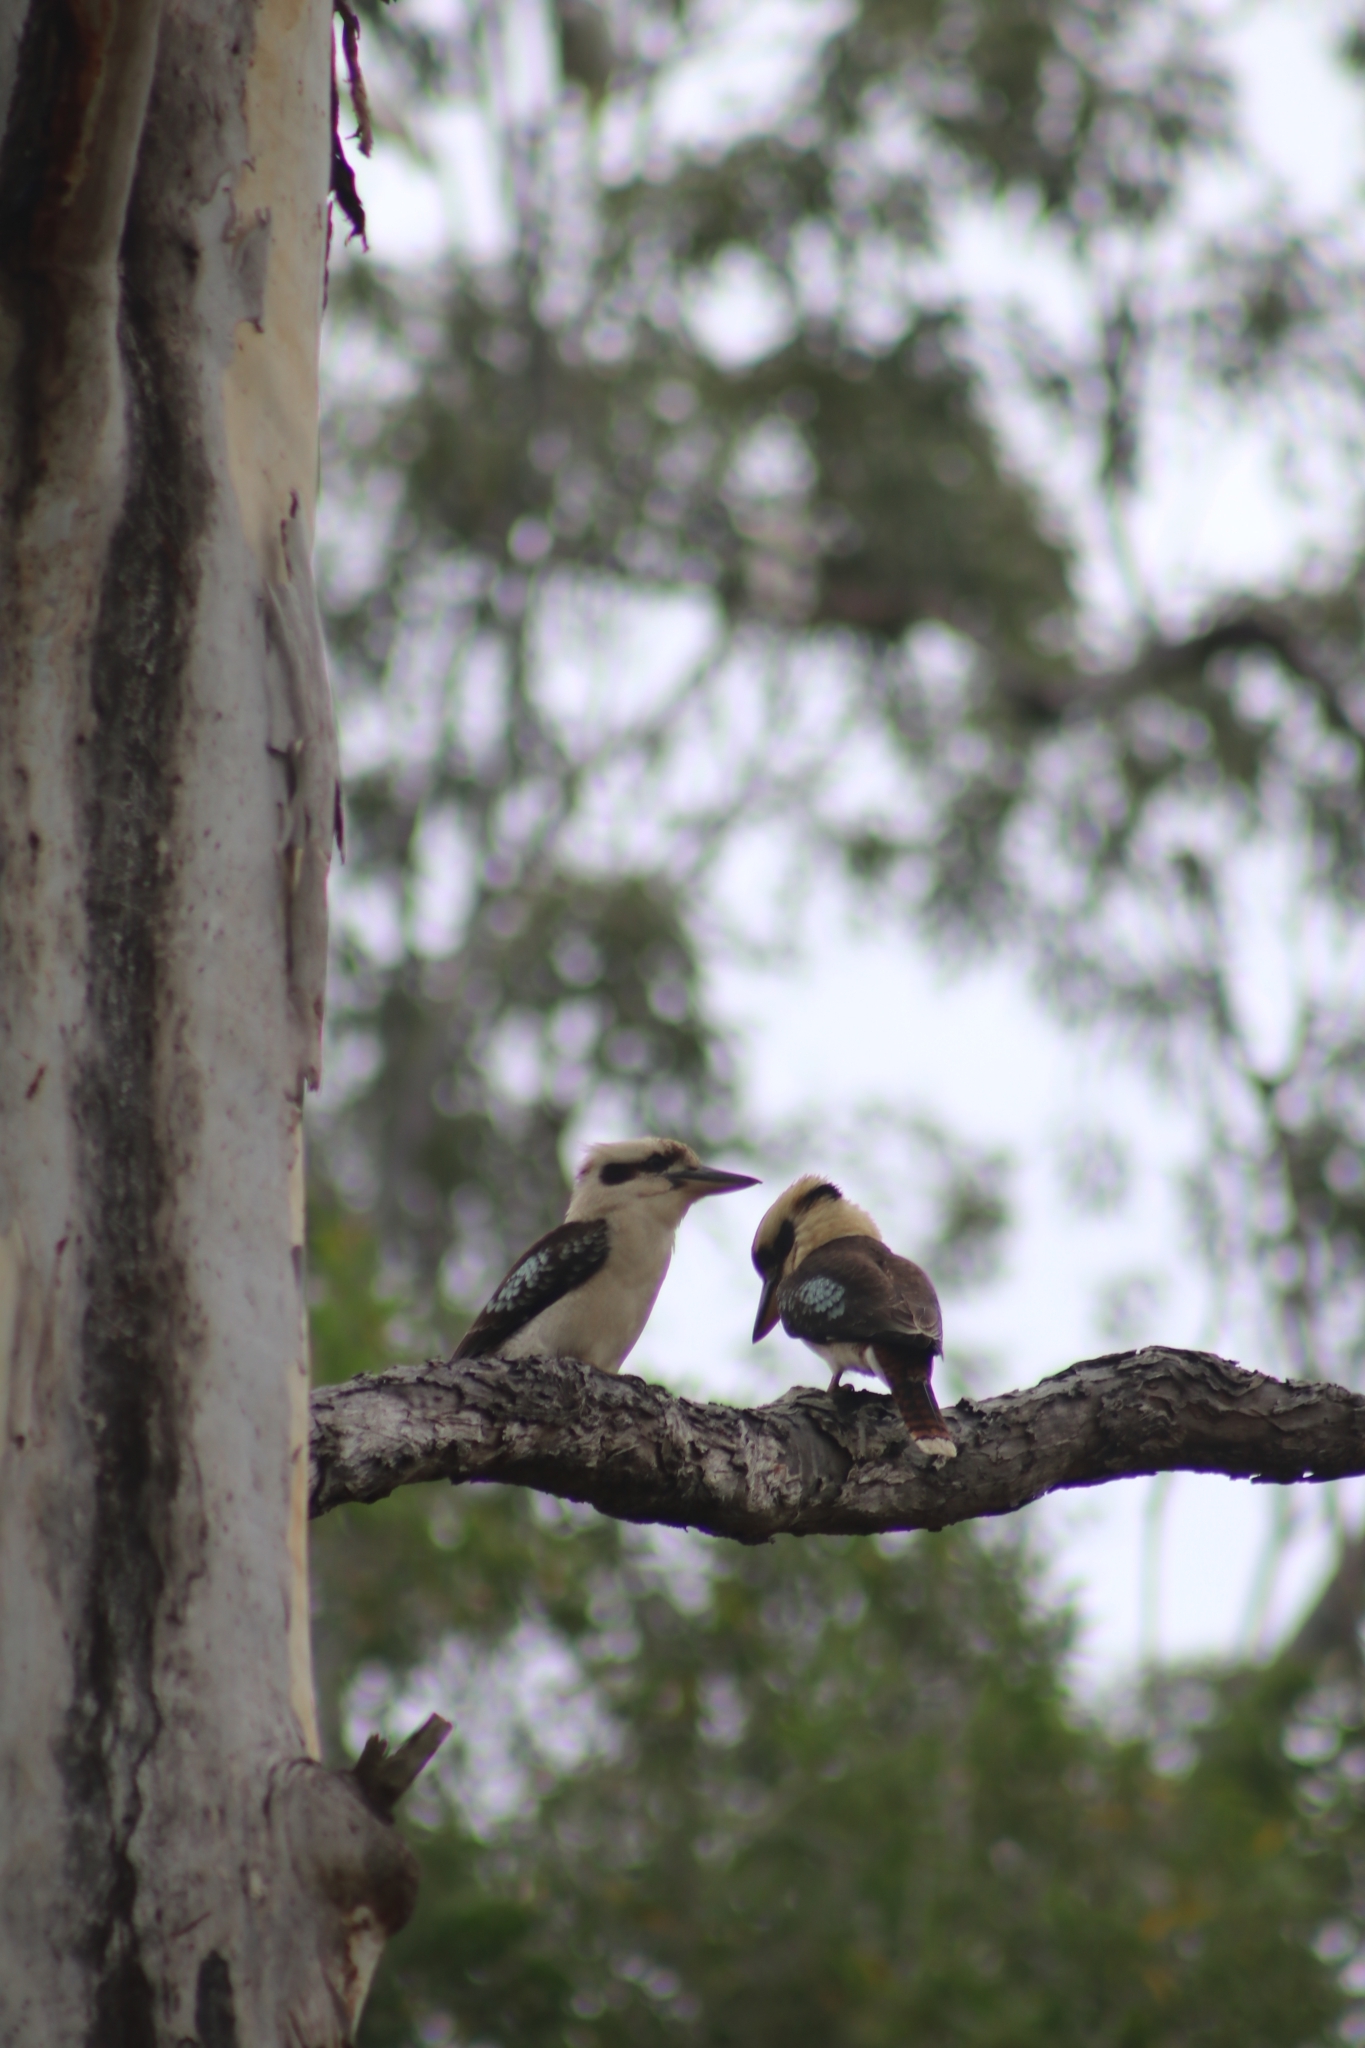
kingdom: Animalia
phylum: Chordata
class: Aves
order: Coraciiformes
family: Alcedinidae
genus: Dacelo
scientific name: Dacelo novaeguineae
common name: Laughing kookaburra
